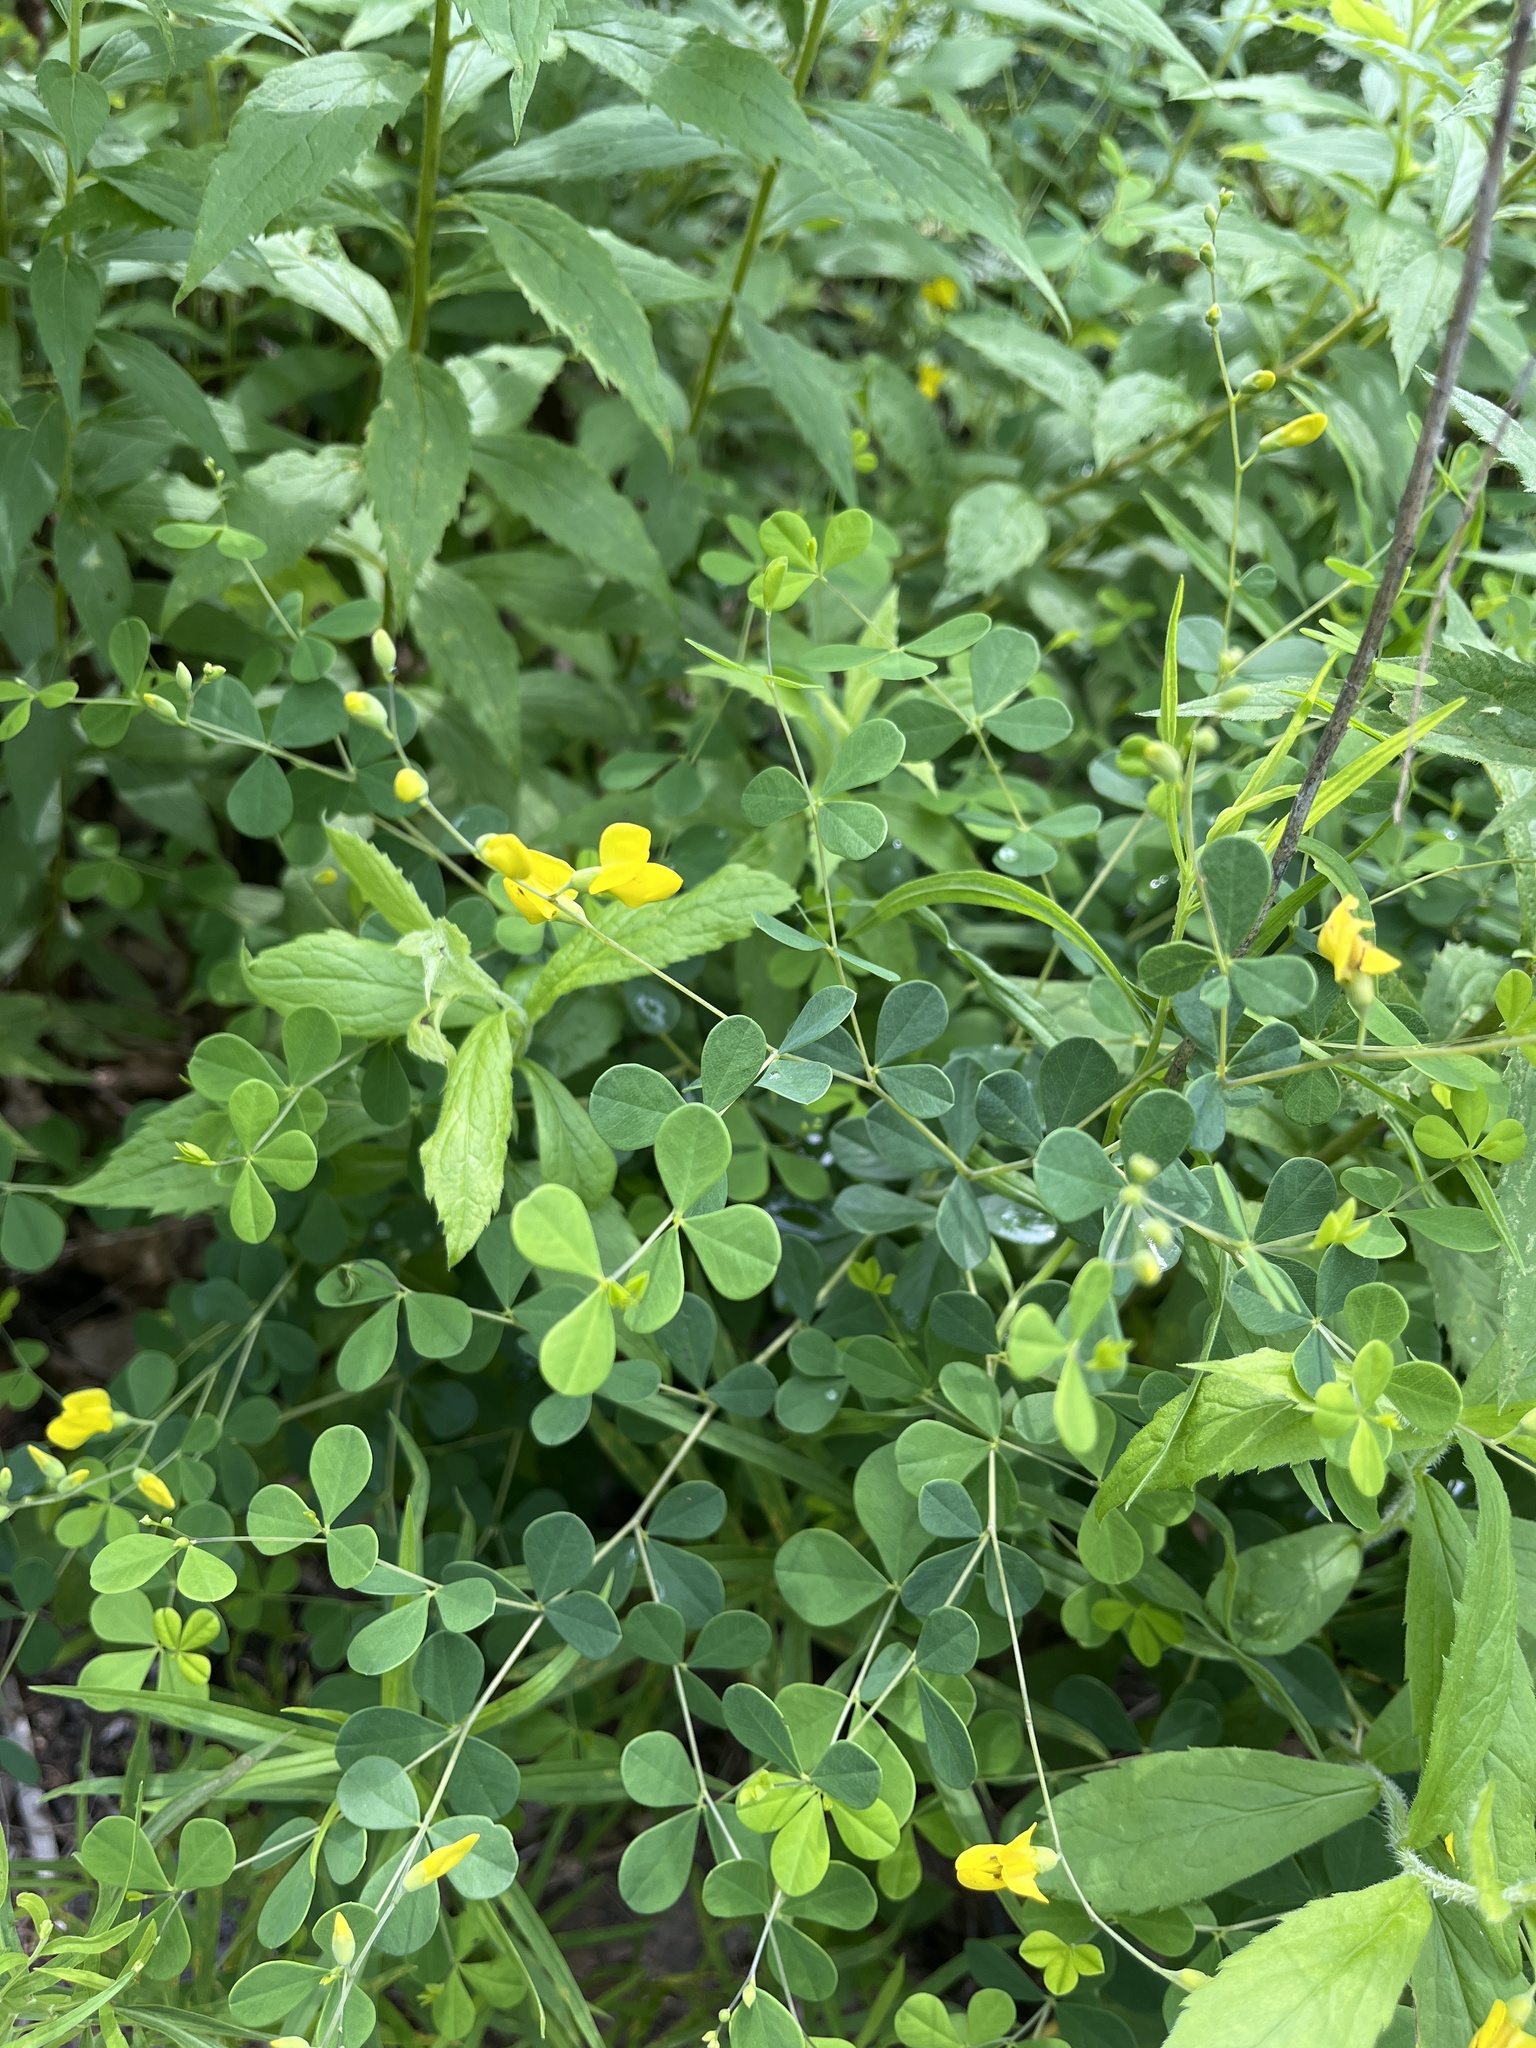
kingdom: Plantae
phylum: Tracheophyta
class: Magnoliopsida
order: Fabales
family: Fabaceae
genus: Baptisia
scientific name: Baptisia tinctoria
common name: Wild indigo
